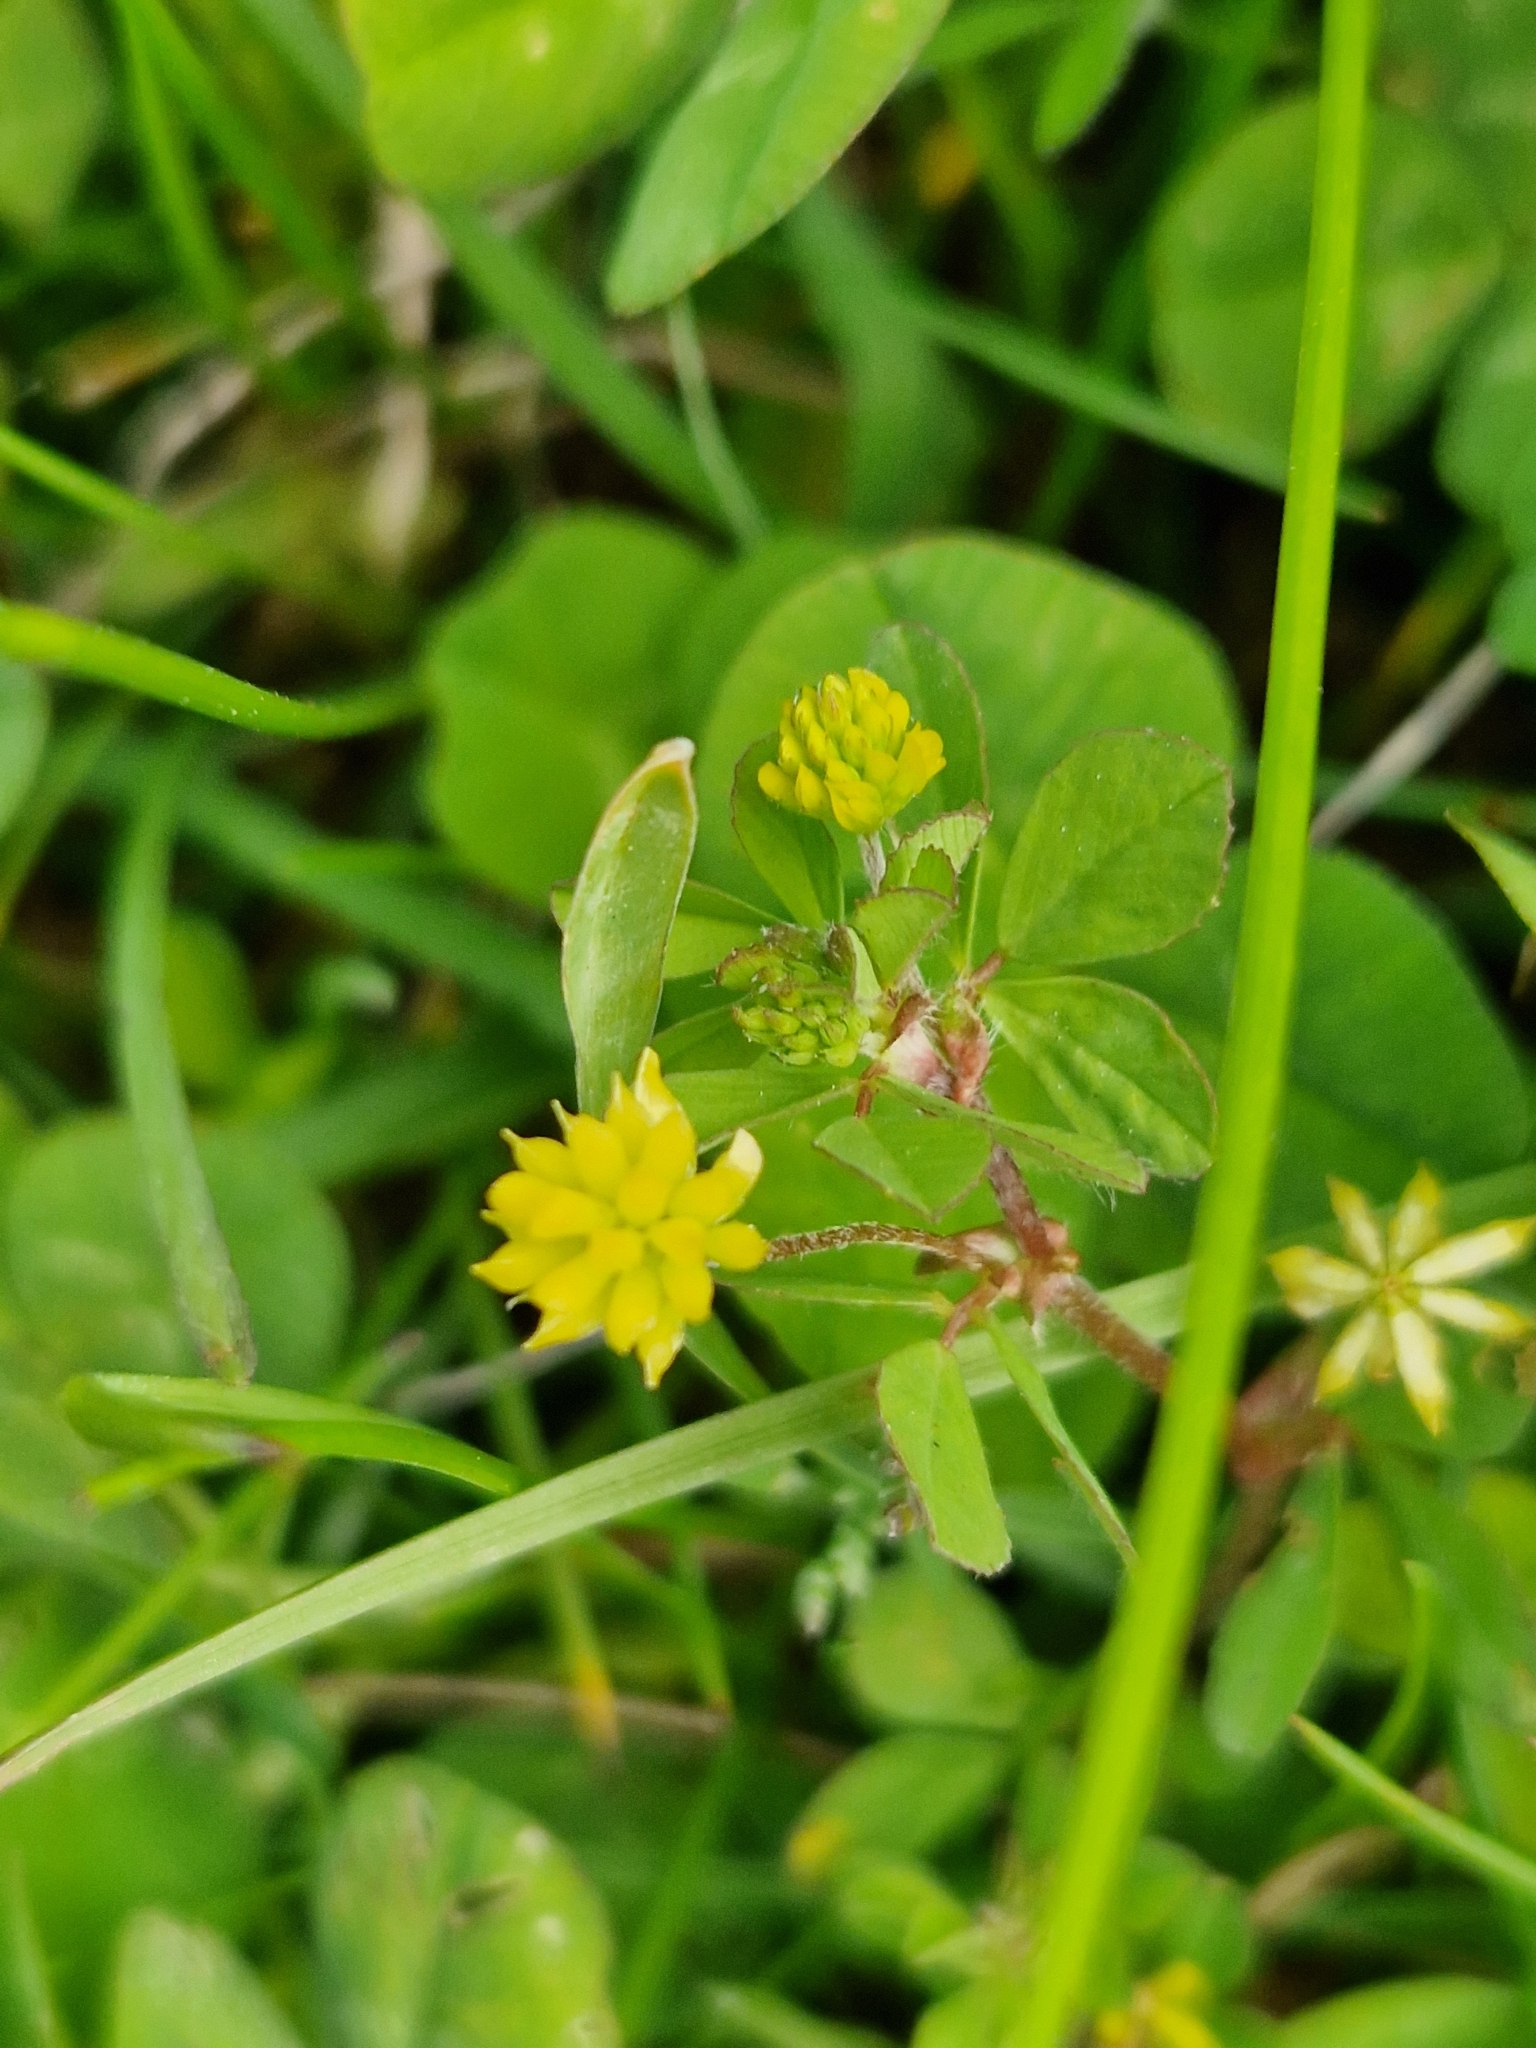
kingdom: Plantae
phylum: Tracheophyta
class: Magnoliopsida
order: Fabales
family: Fabaceae
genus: Trifolium
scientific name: Trifolium dubium
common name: Suckling clover
